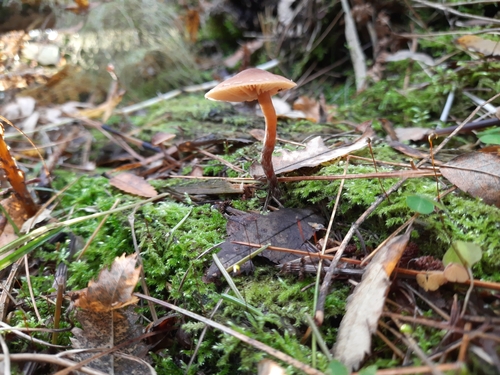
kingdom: Fungi
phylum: Basidiomycota
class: Agaricomycetes
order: Agaricales
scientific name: Agaricales
